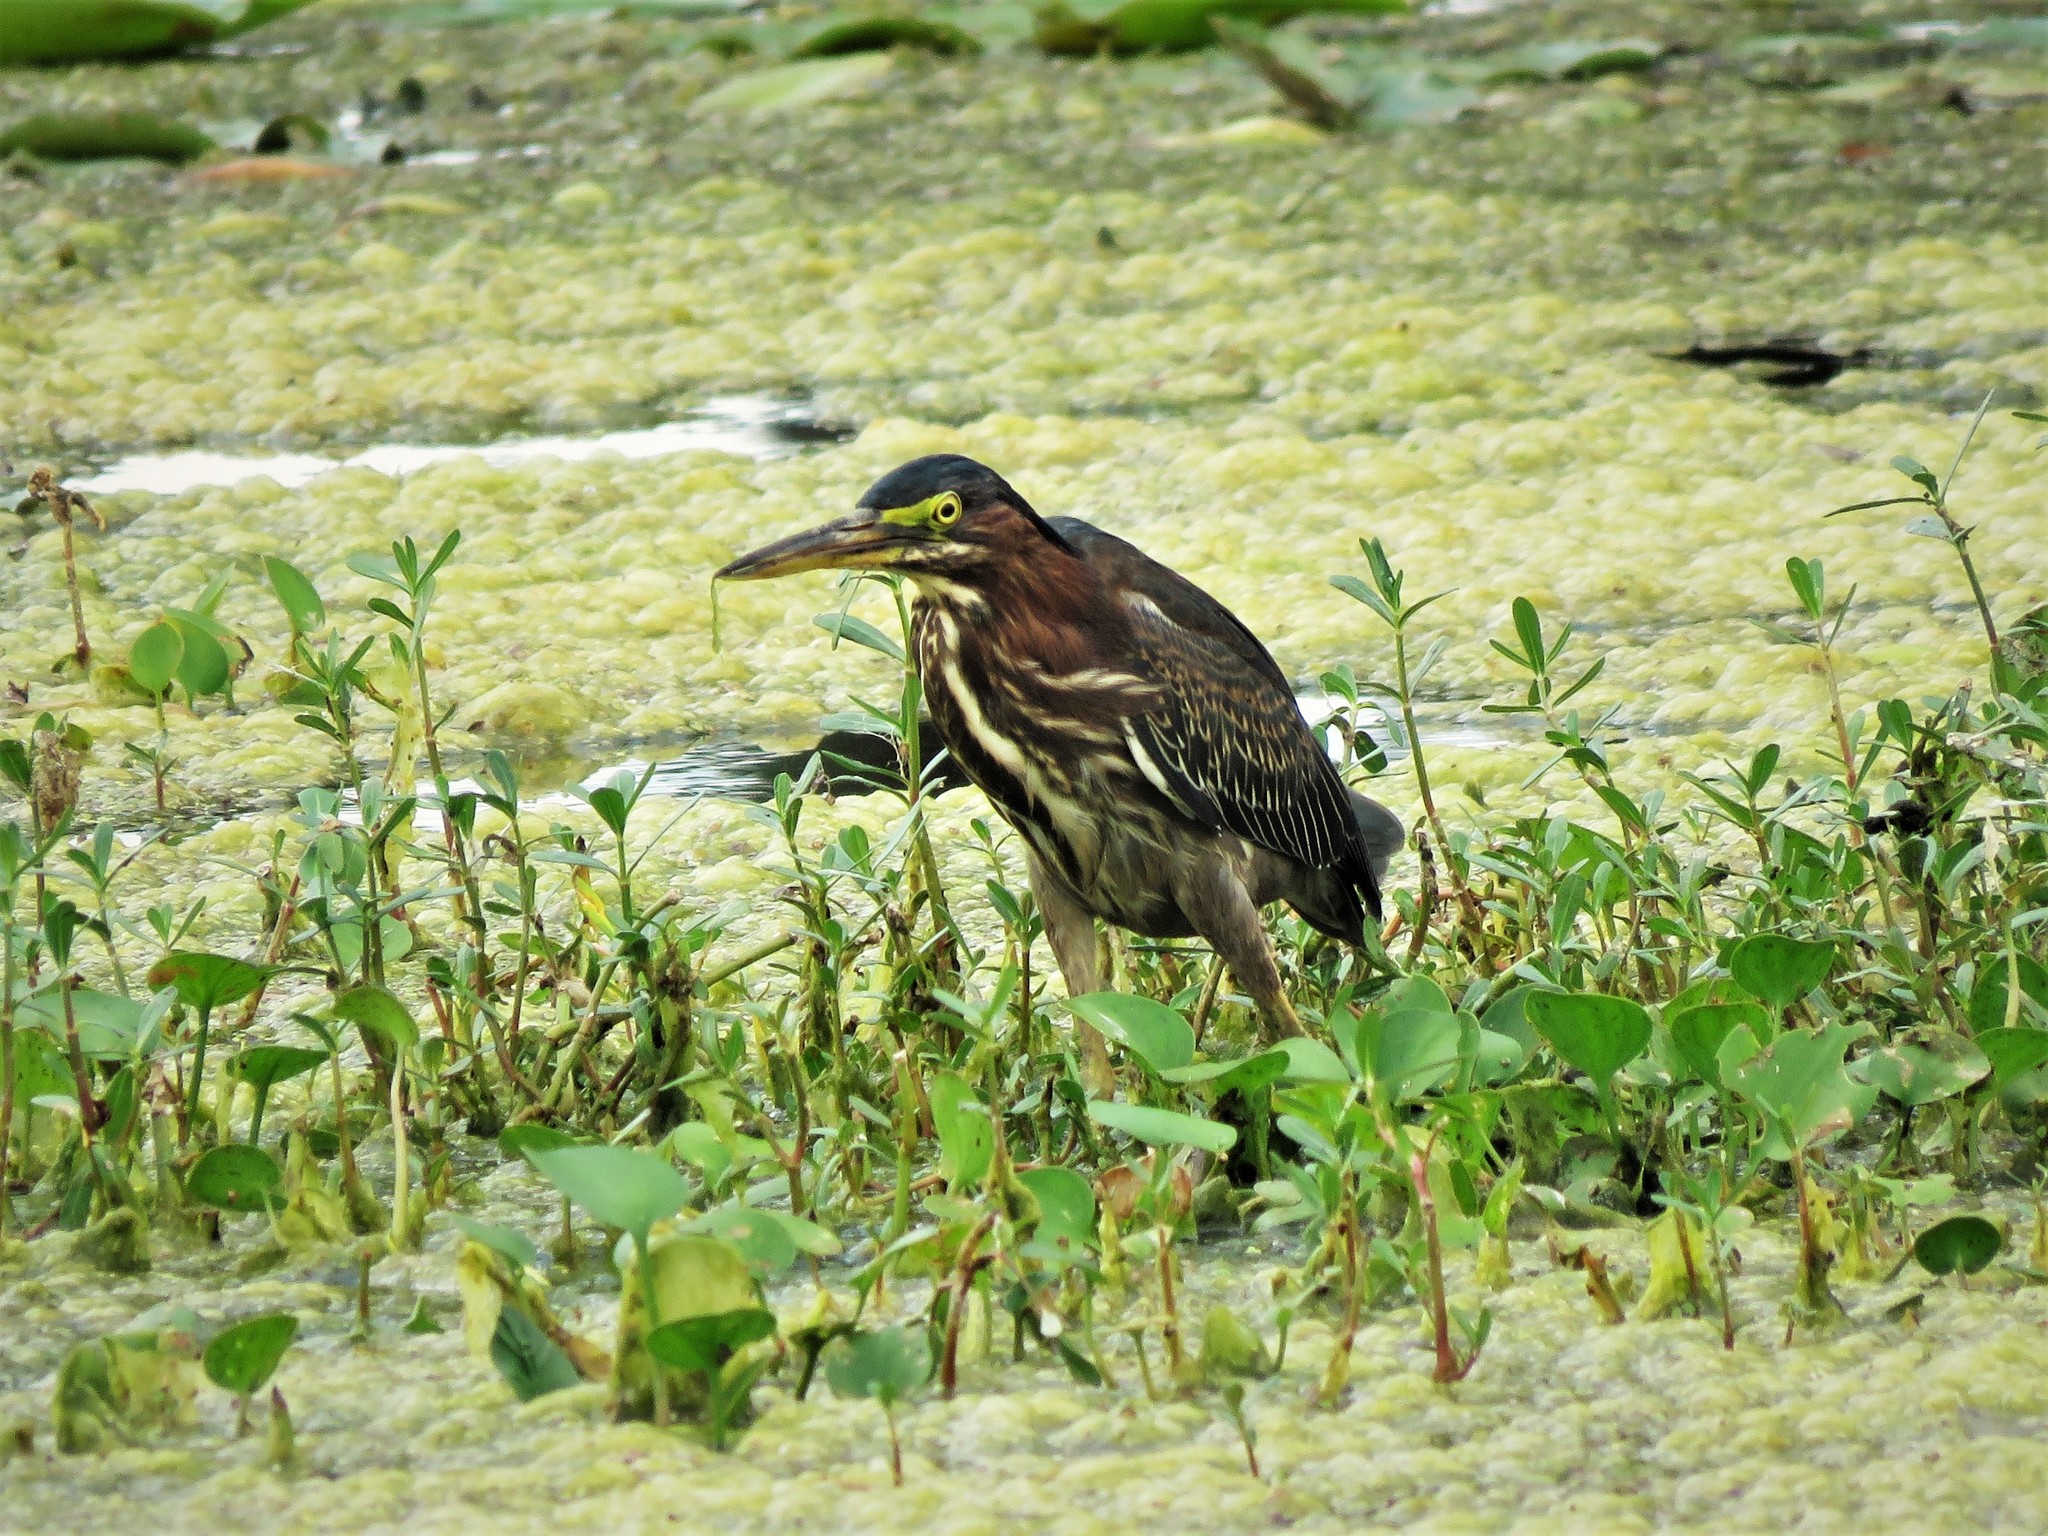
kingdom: Animalia
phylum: Chordata
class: Aves
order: Pelecaniformes
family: Ardeidae
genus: Butorides
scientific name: Butorides virescens
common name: Green heron
